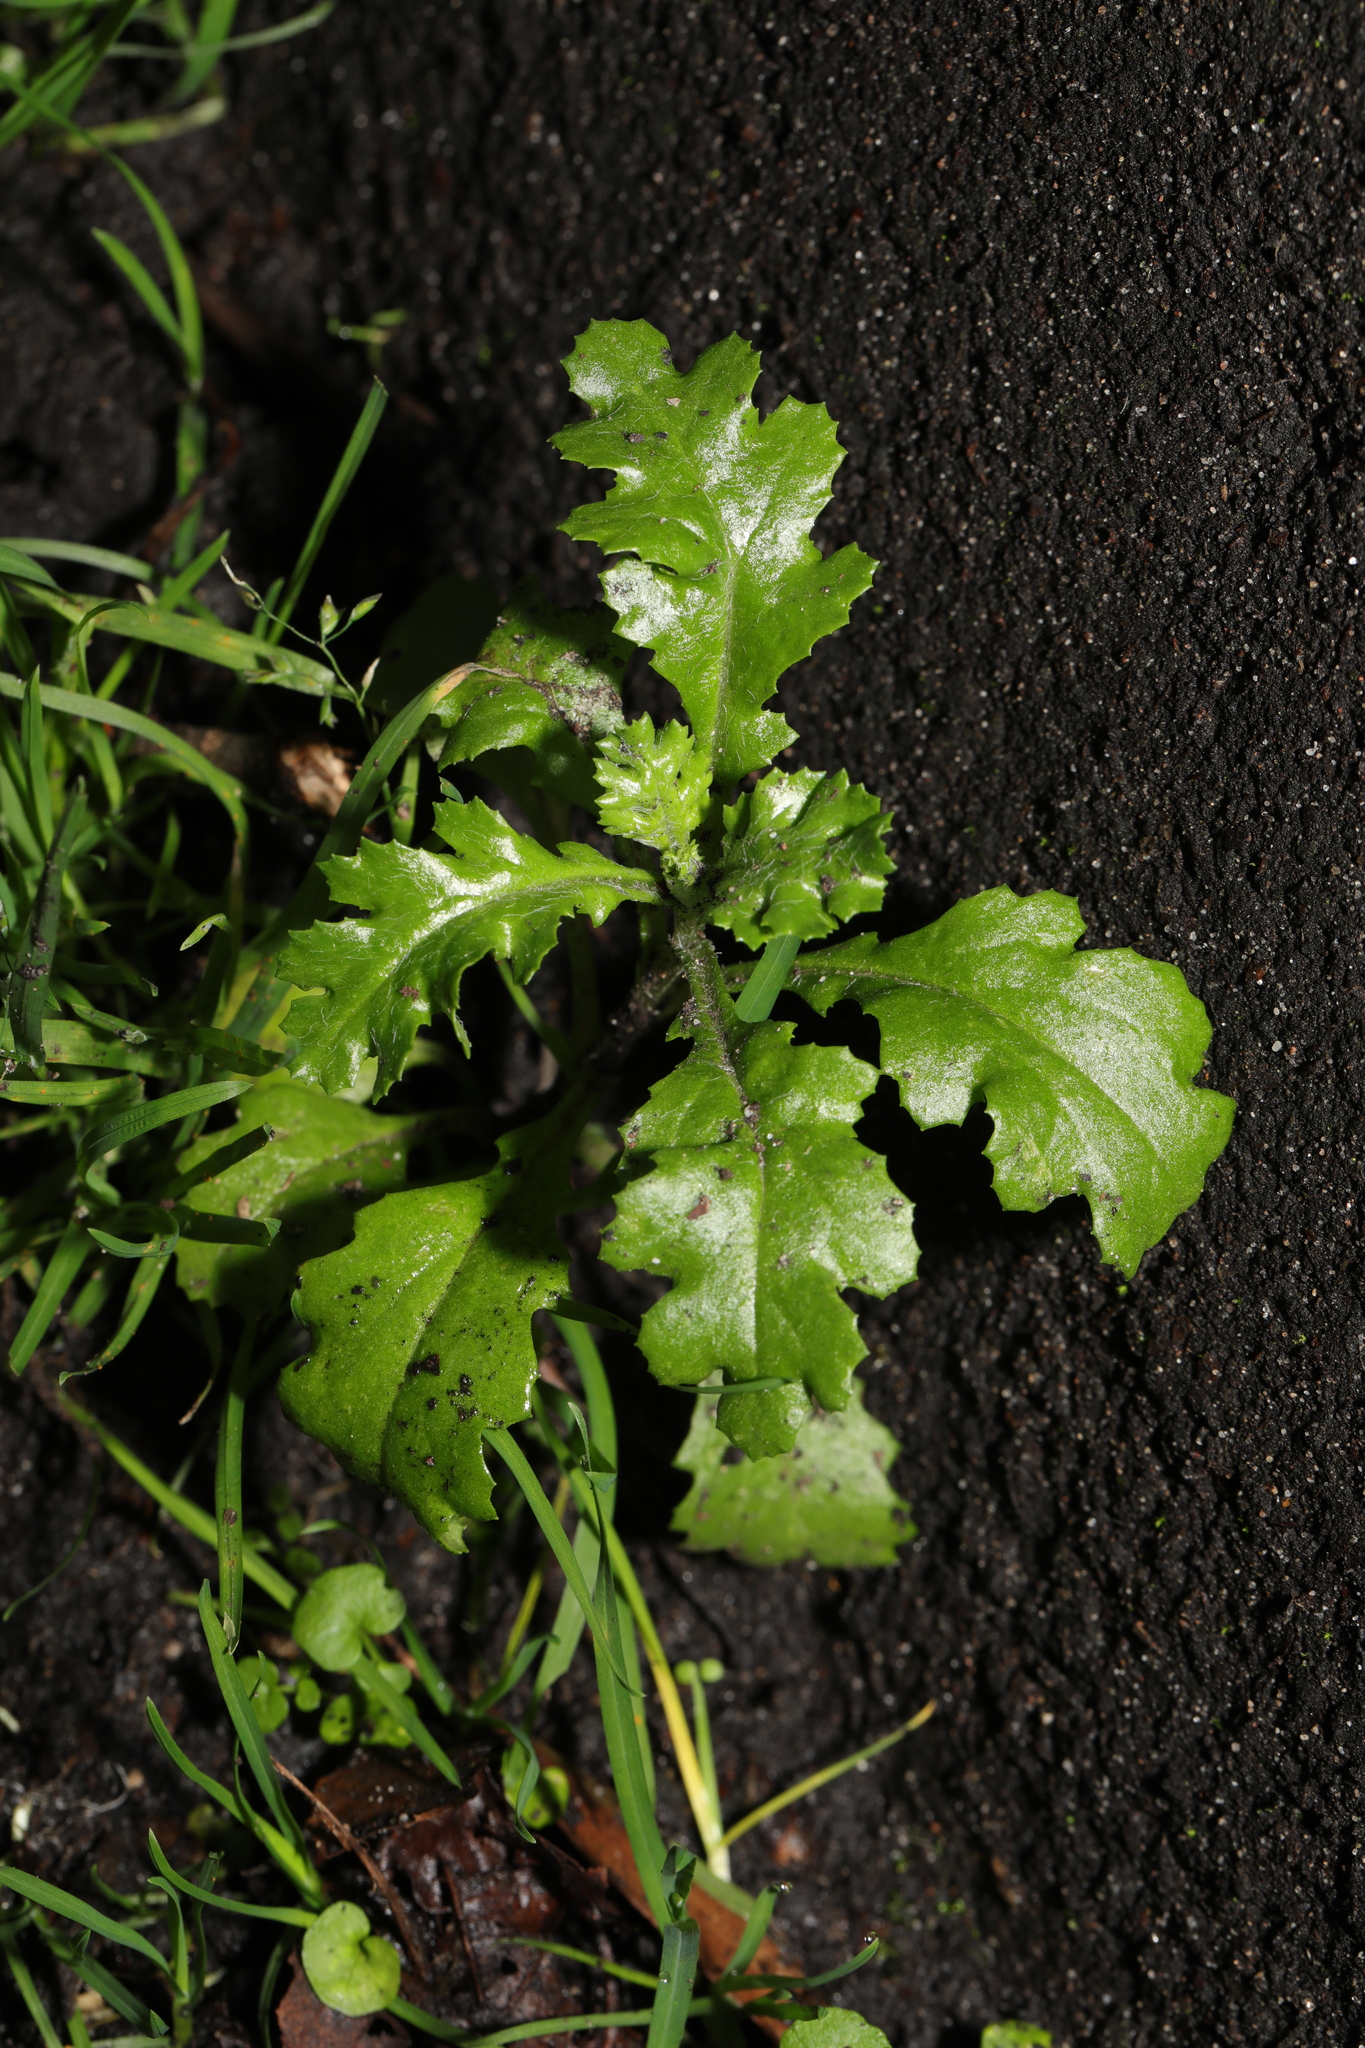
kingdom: Plantae
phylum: Tracheophyta
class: Magnoliopsida
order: Asterales
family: Asteraceae
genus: Senecio
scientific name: Senecio vulgaris
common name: Old-man-in-the-spring
